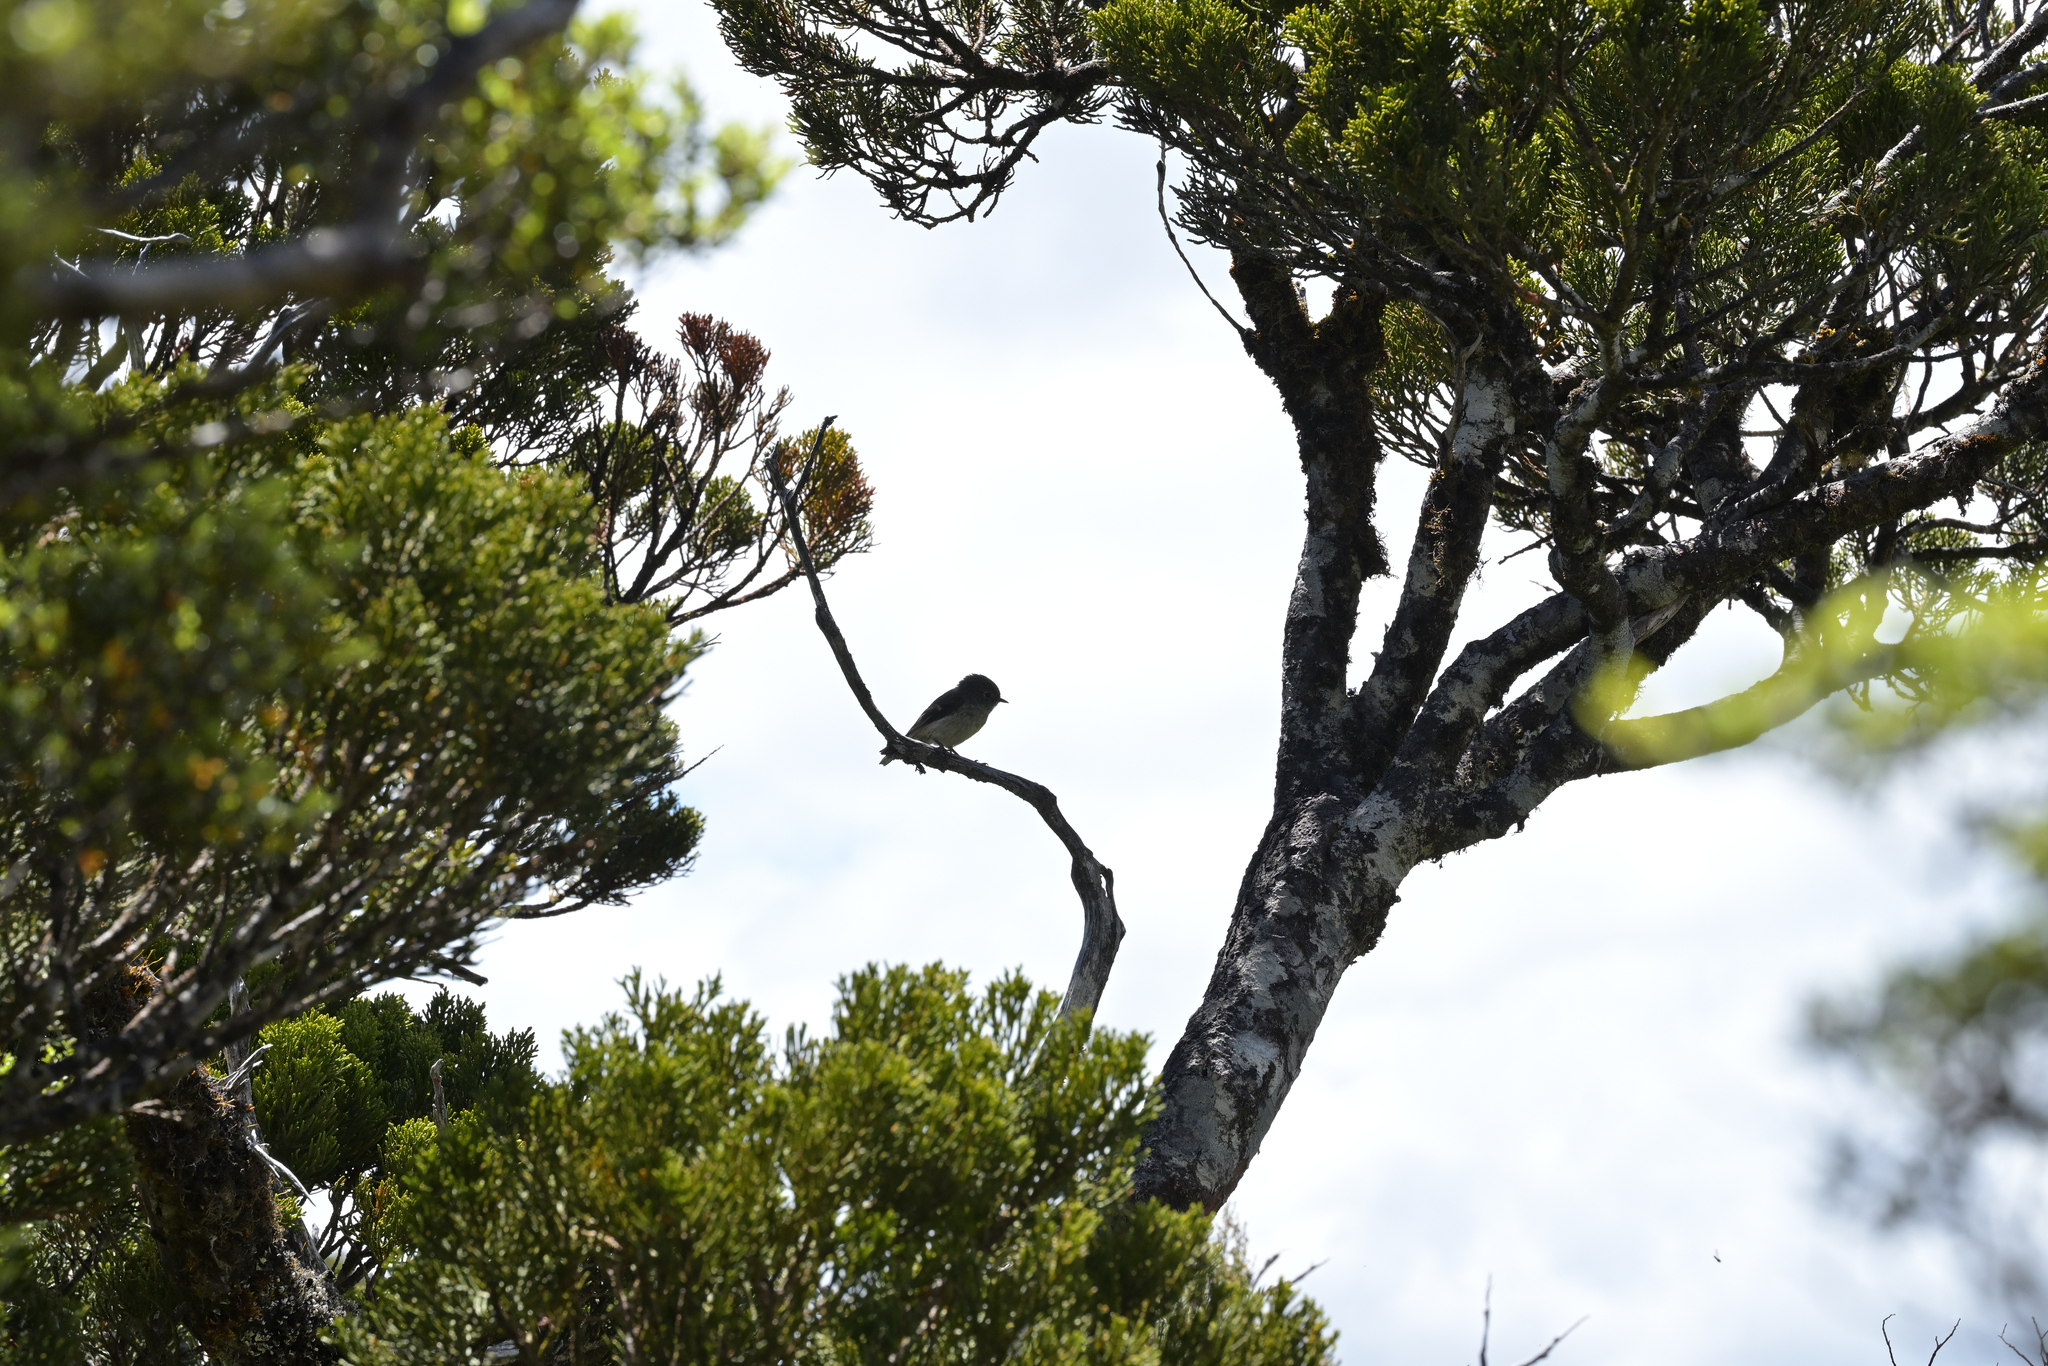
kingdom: Animalia
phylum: Chordata
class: Aves
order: Passeriformes
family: Petroicidae
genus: Petroica
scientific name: Petroica macrocephala
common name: Tomtit
